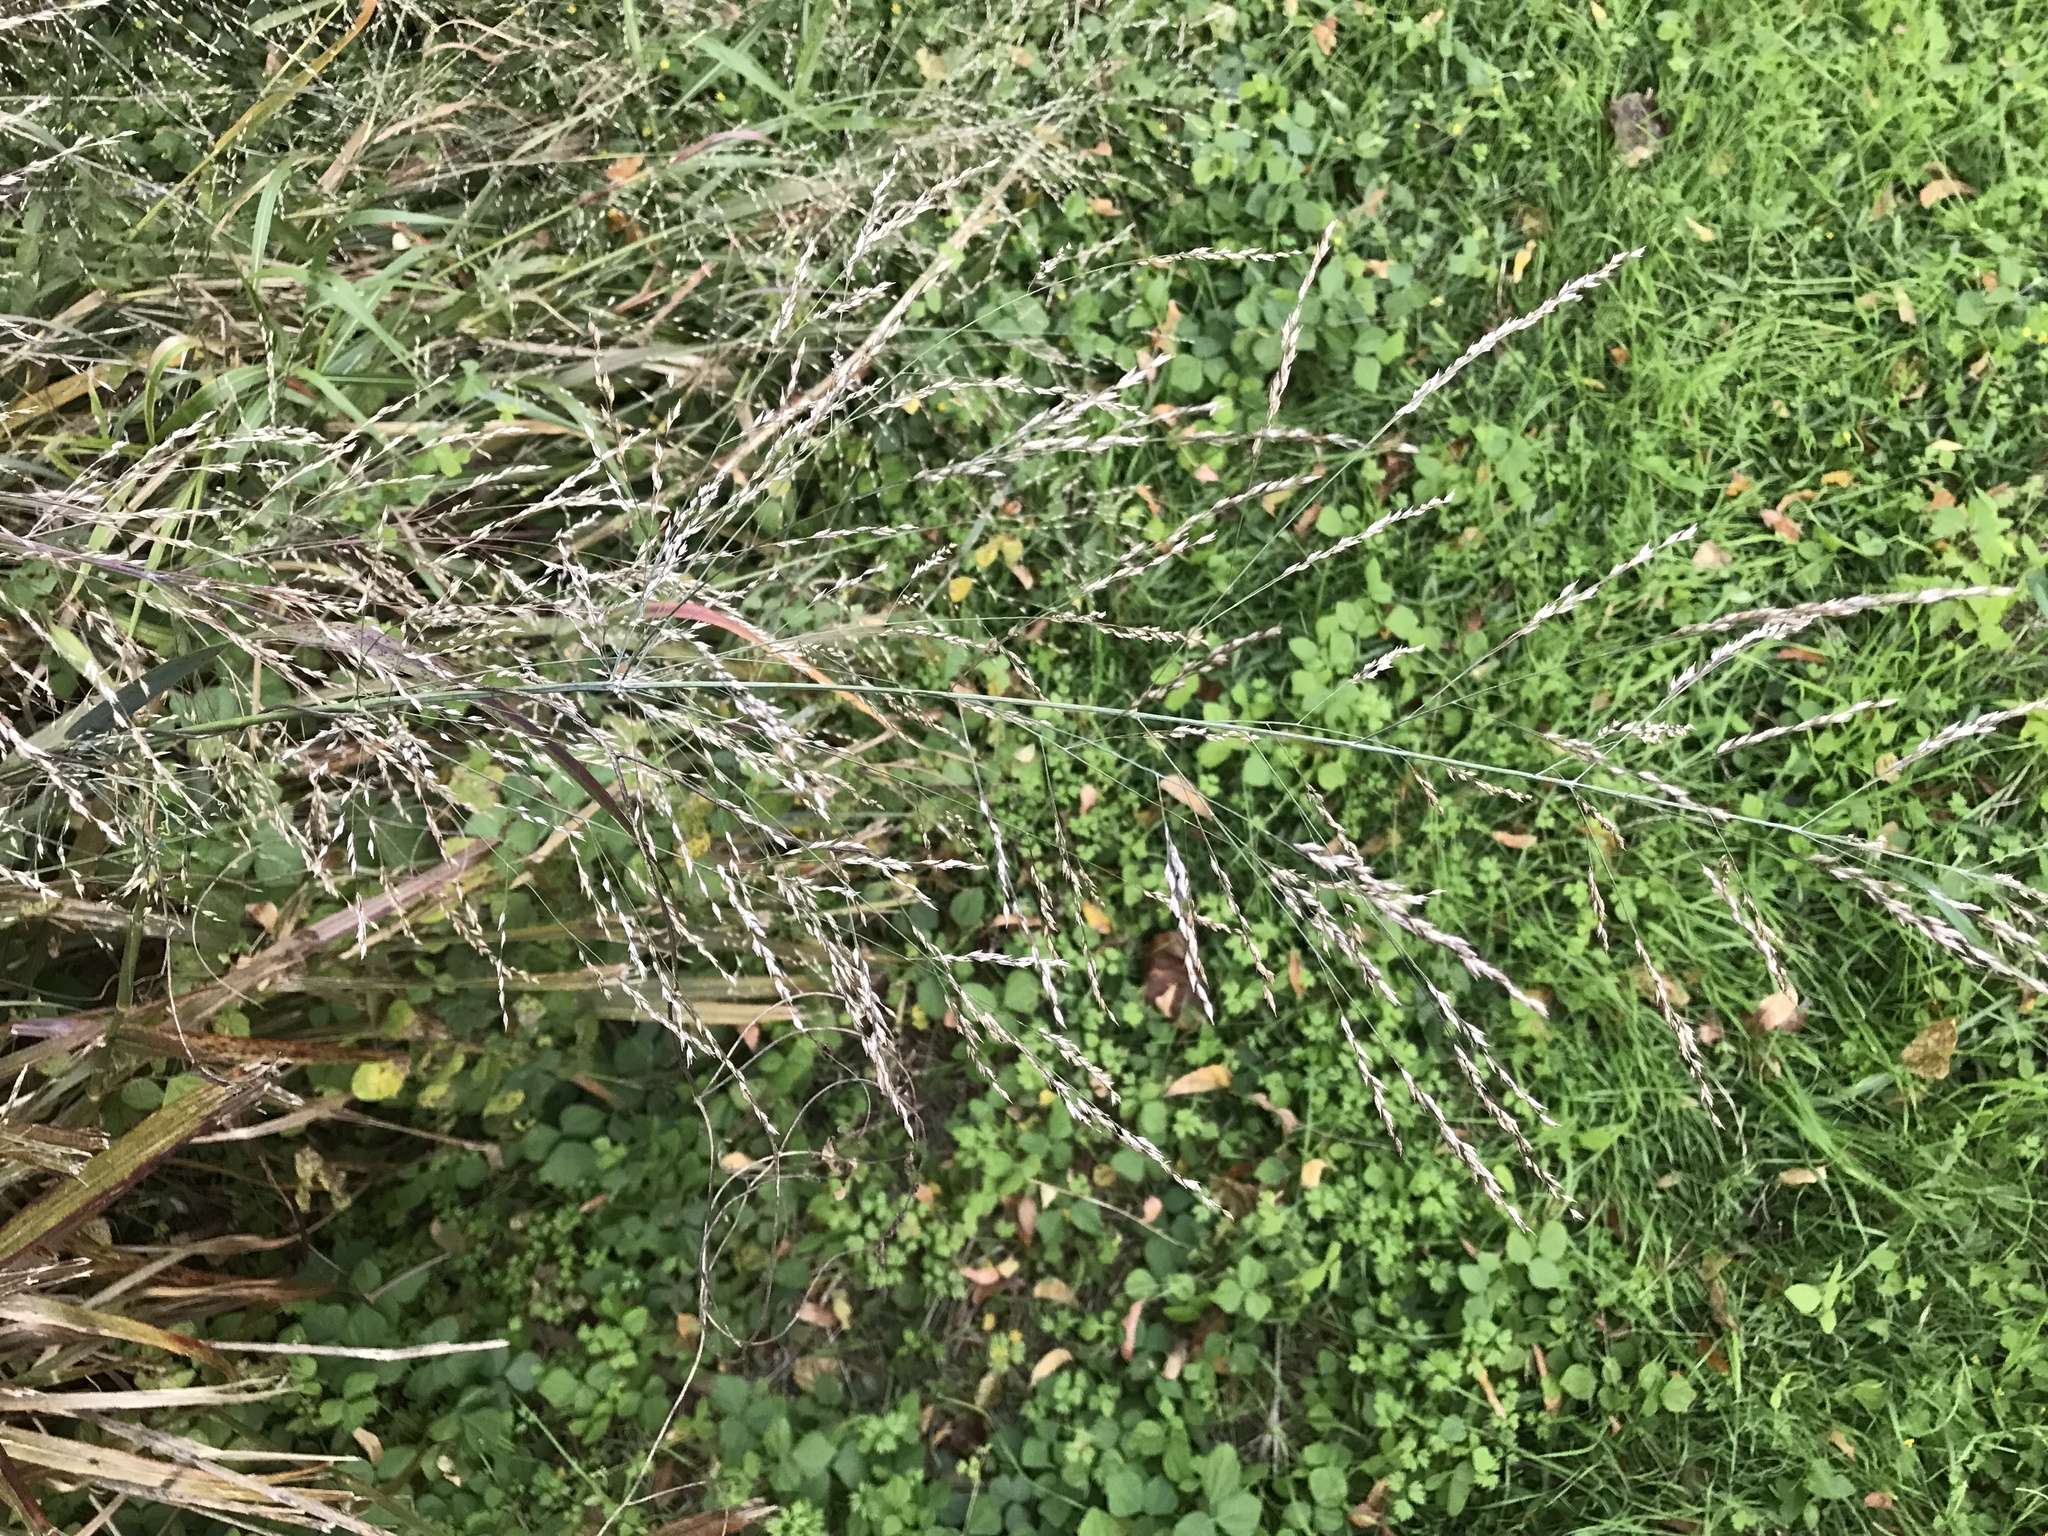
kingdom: Plantae
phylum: Tracheophyta
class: Liliopsida
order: Poales
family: Poaceae
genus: Panicum
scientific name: Panicum virgatum
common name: Switchgrass
